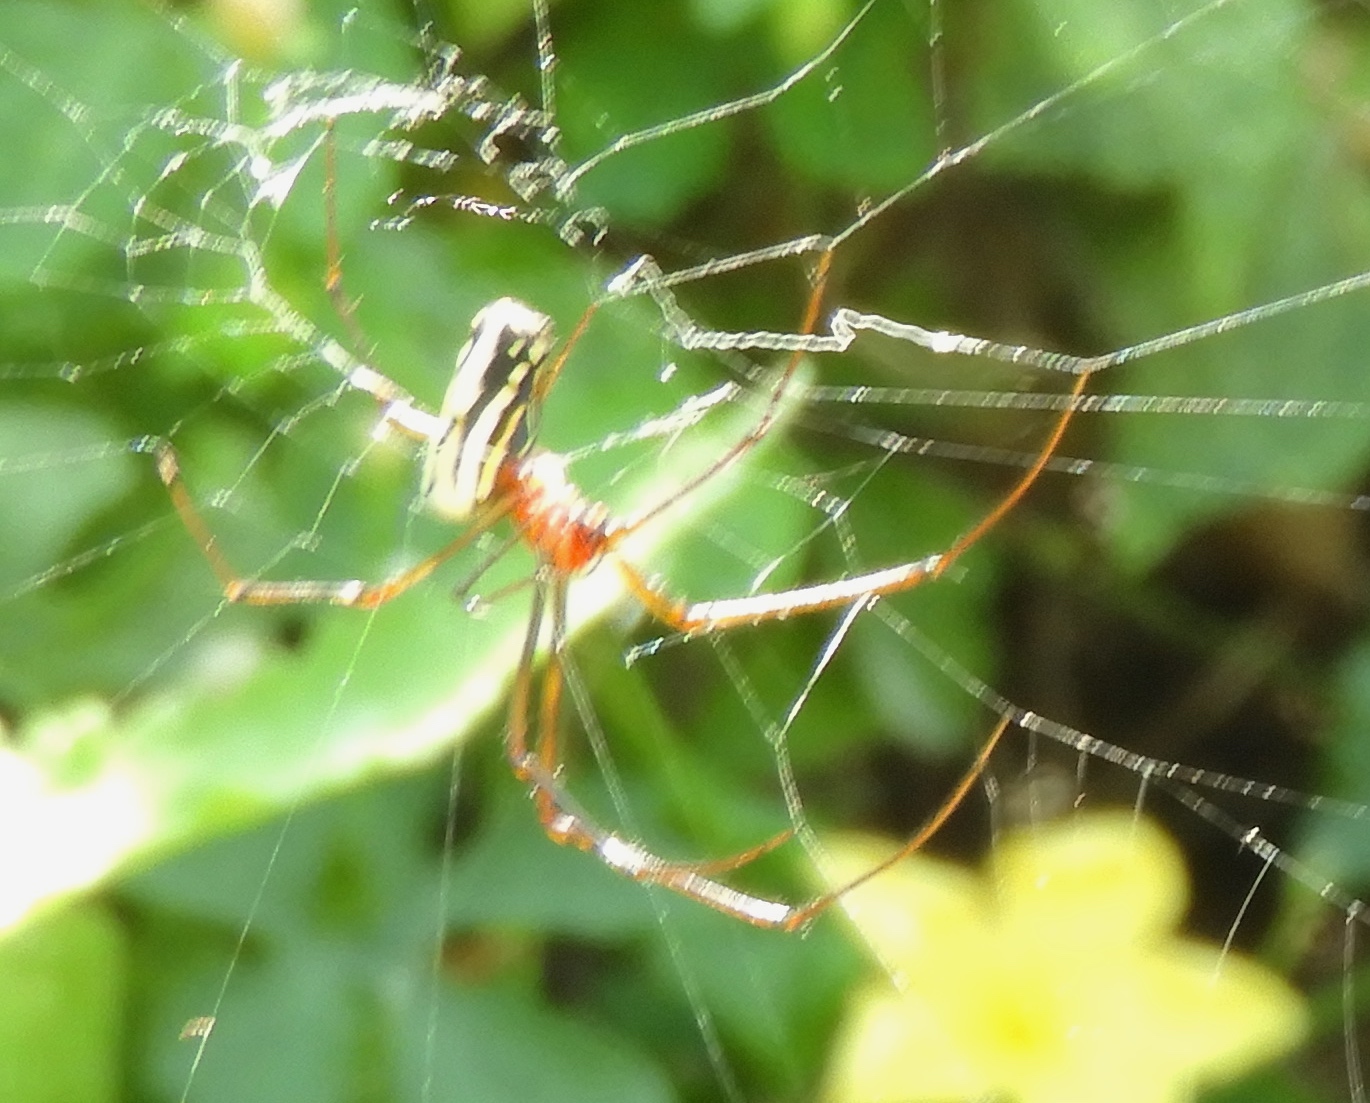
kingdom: Animalia
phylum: Arthropoda
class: Arachnida
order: Araneae
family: Tetragnathidae
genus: Leucauge
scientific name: Leucauge
